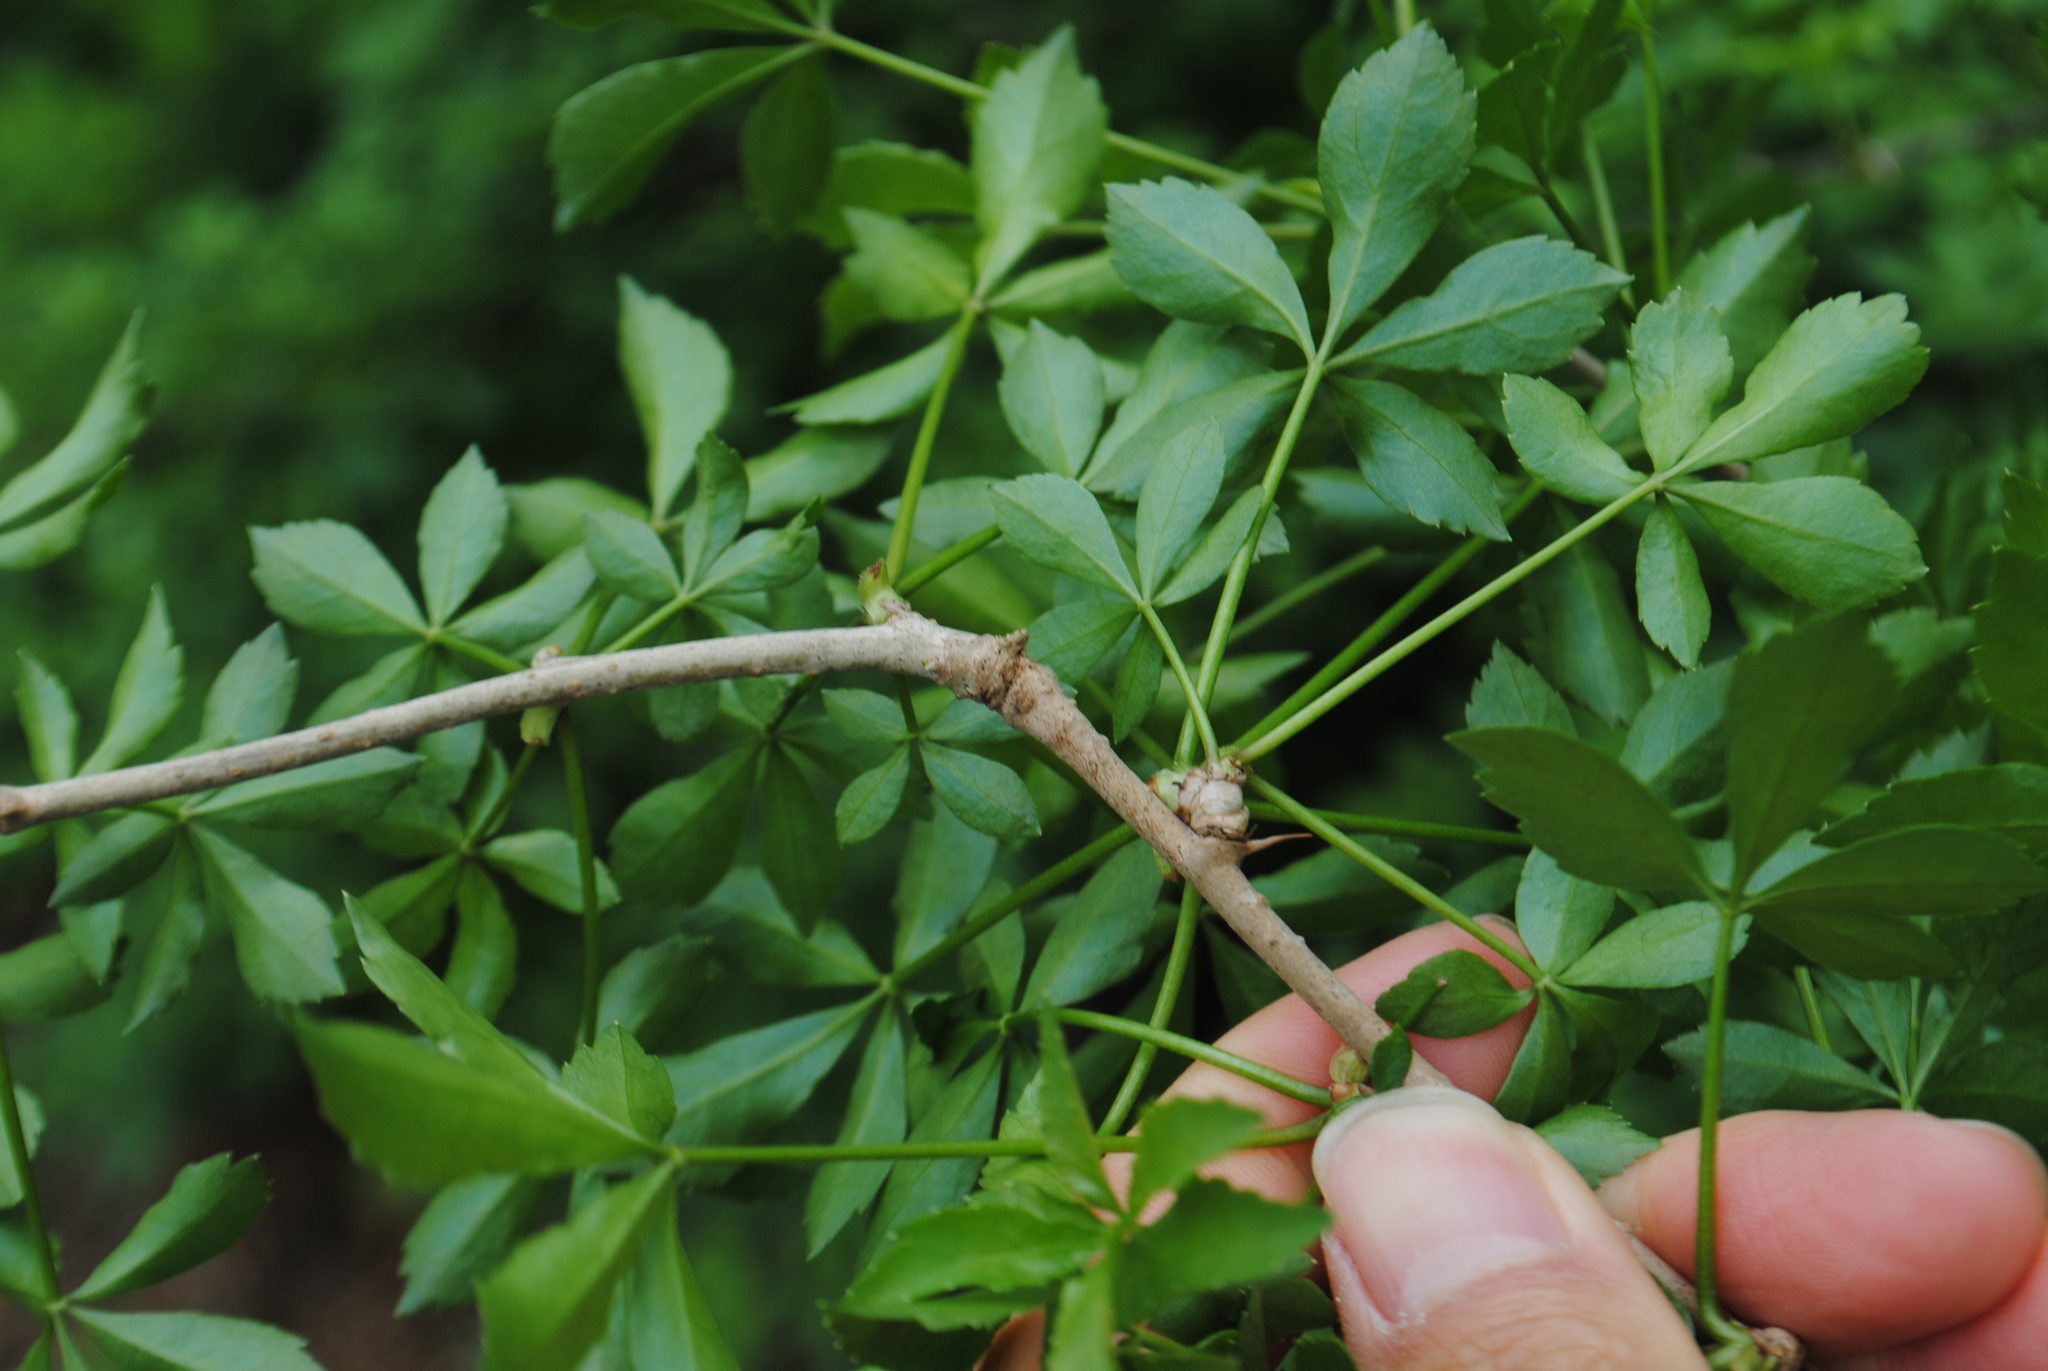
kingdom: Plantae
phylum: Tracheophyta
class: Magnoliopsida
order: Apiales
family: Araliaceae
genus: Eleutherococcus
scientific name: Eleutherococcus sieboldianus
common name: Ginseng
